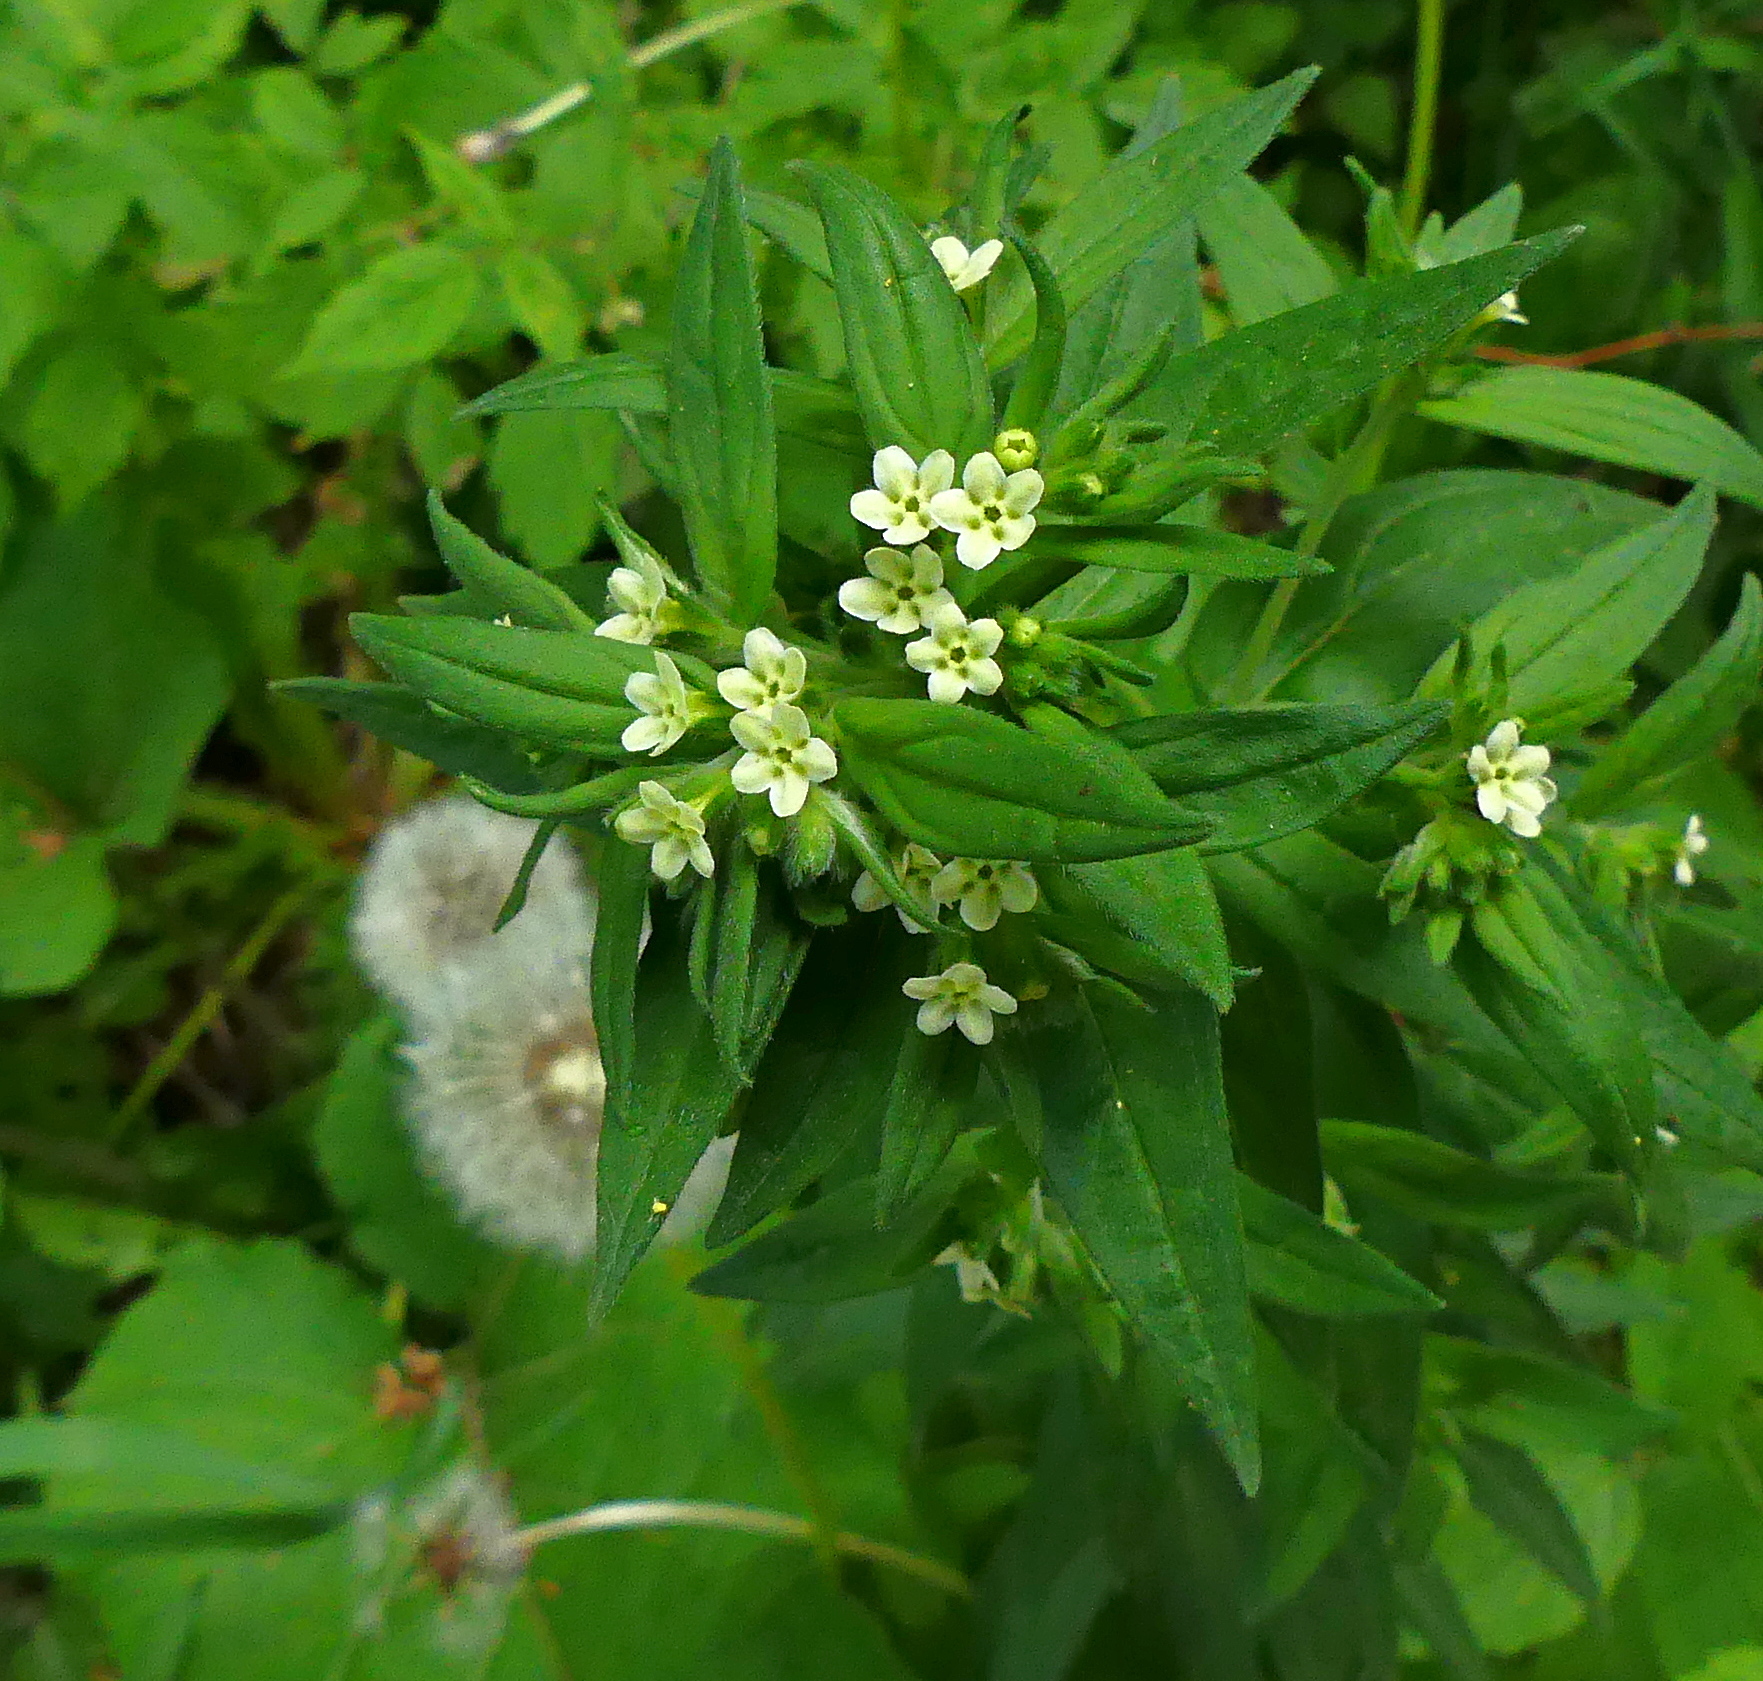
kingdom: Plantae
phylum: Tracheophyta
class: Magnoliopsida
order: Boraginales
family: Boraginaceae
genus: Lithospermum
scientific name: Lithospermum officinale
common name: Common gromwell
